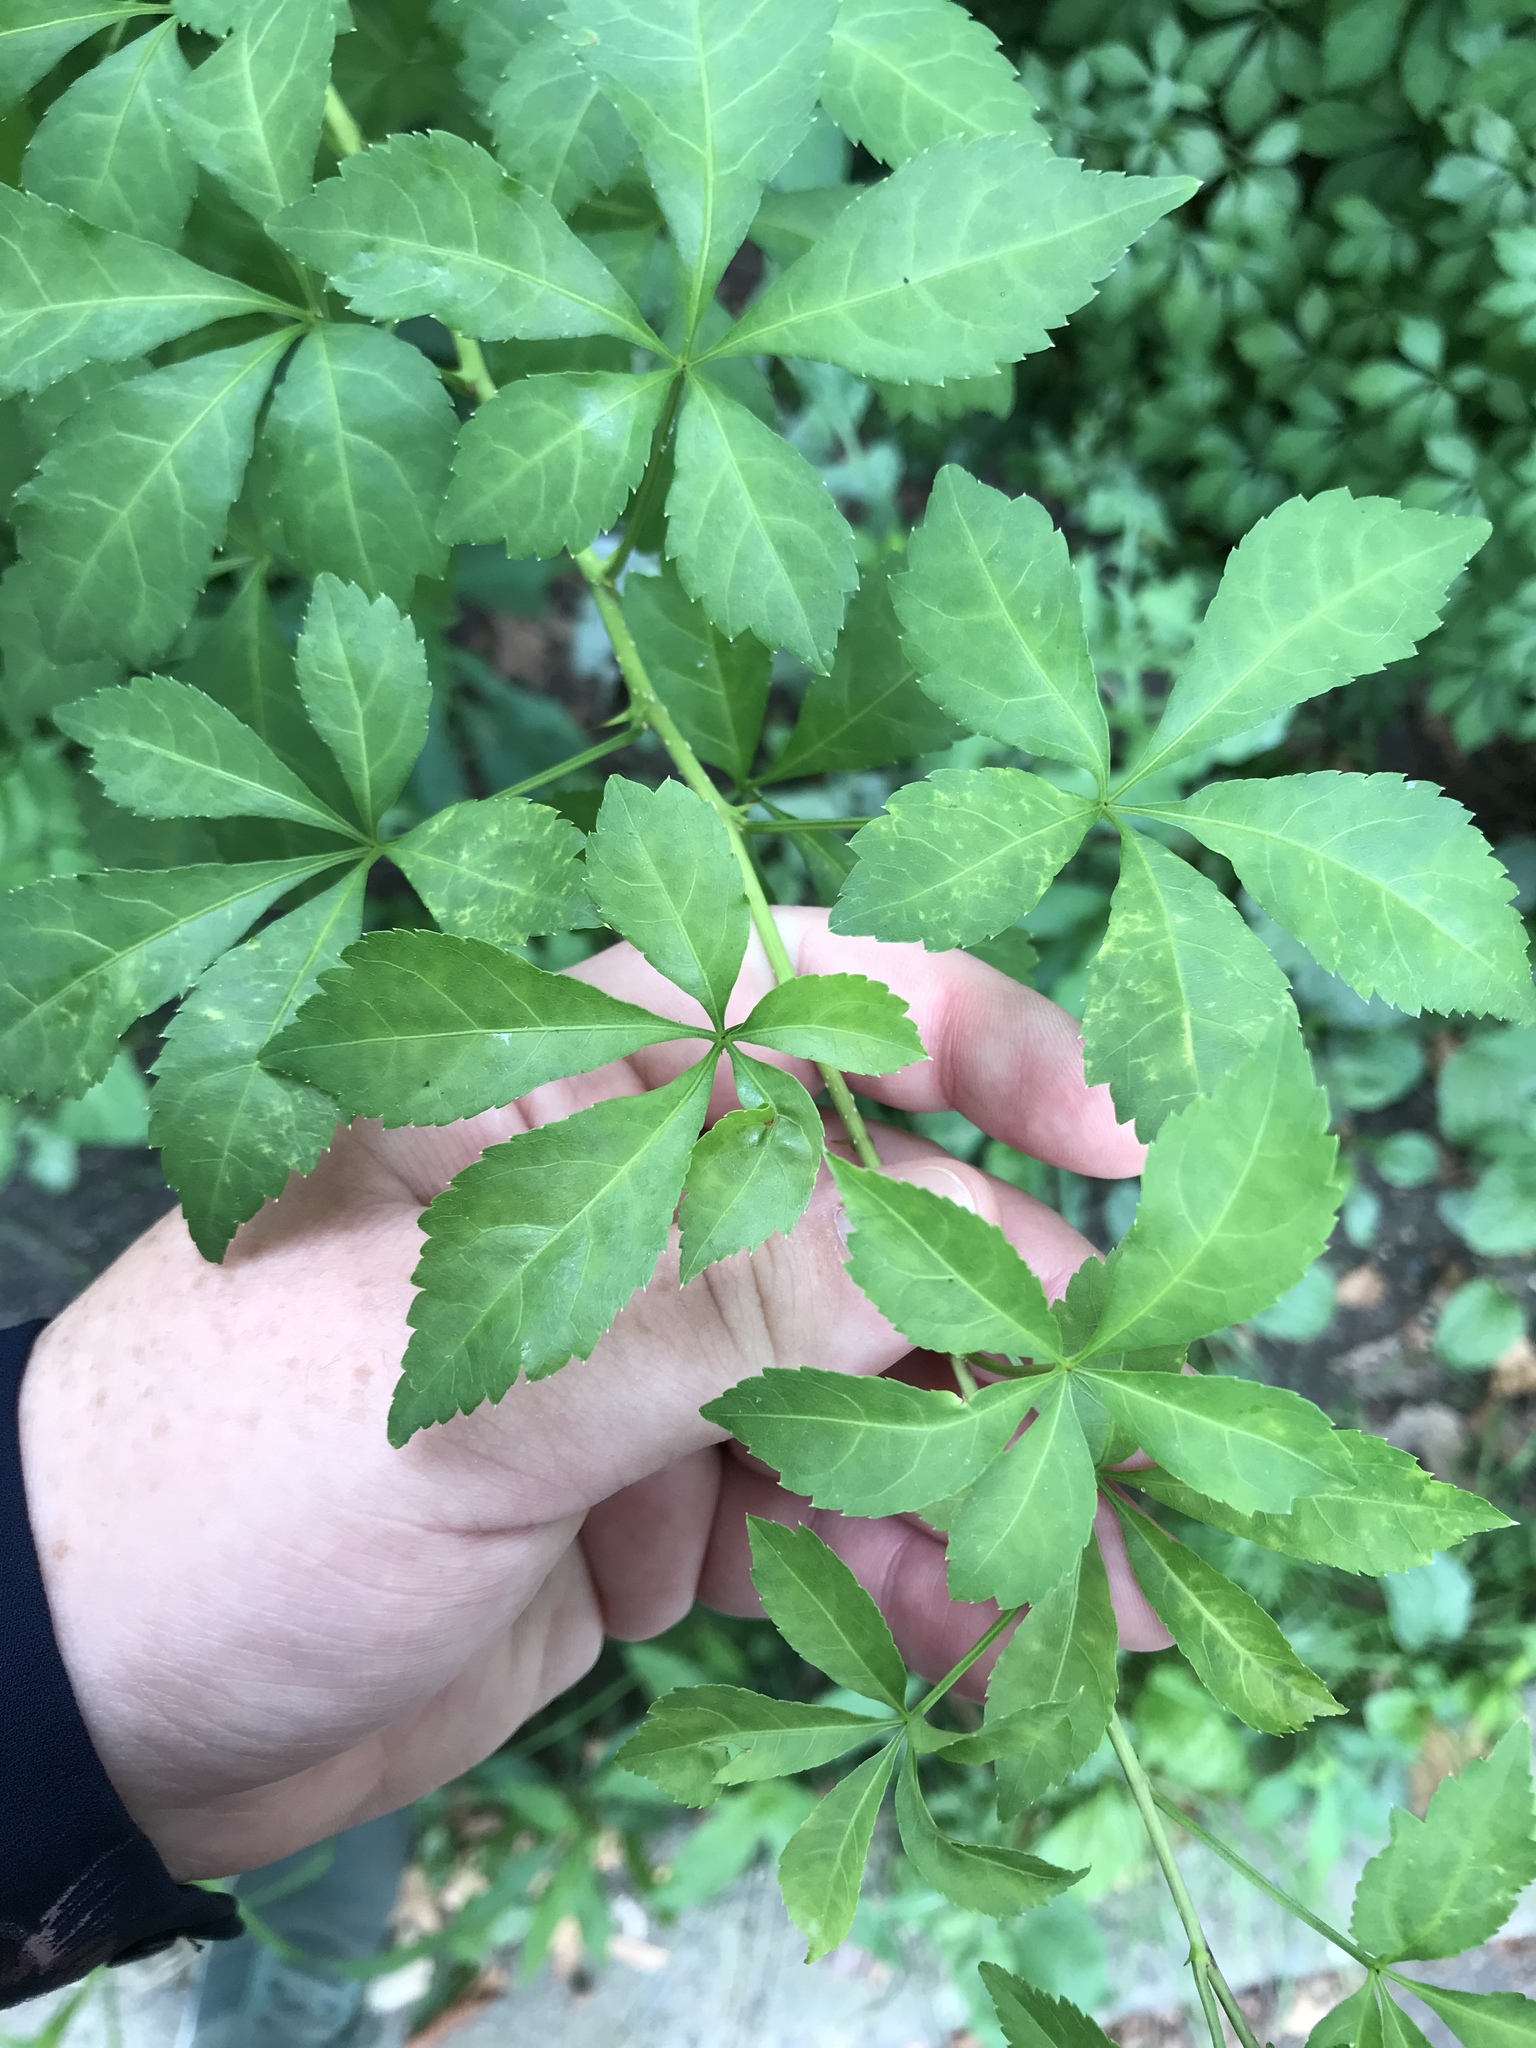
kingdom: Plantae
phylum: Tracheophyta
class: Magnoliopsida
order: Apiales
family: Araliaceae
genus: Eleutherococcus
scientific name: Eleutherococcus sieboldianus
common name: Ginseng
